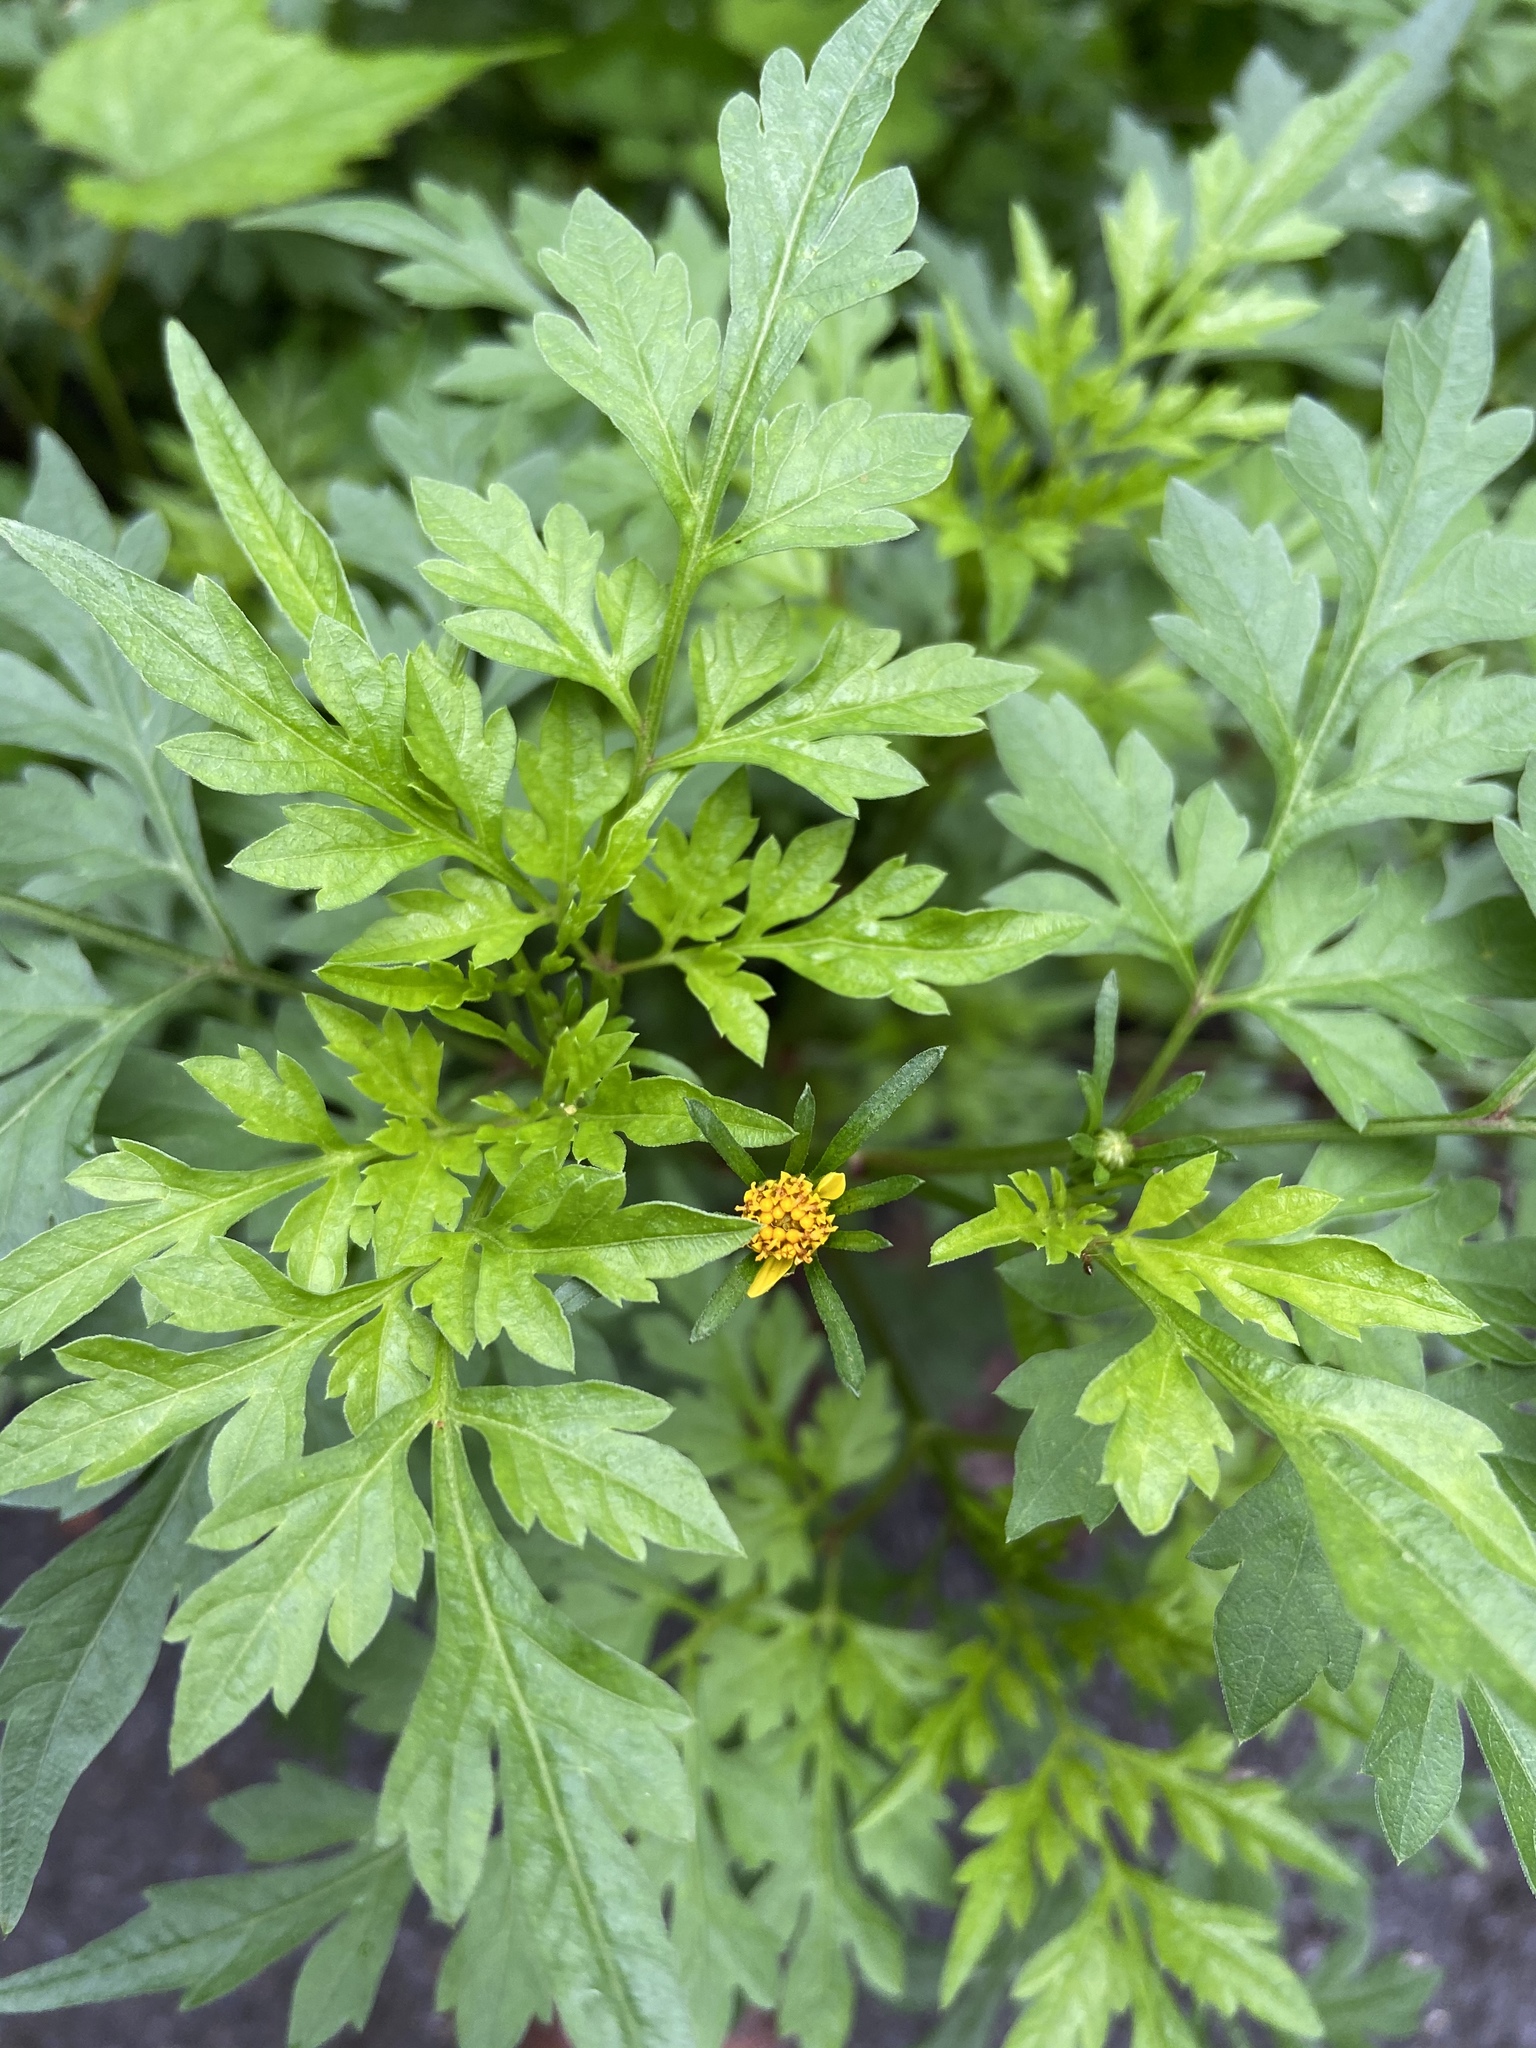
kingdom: Plantae
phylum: Tracheophyta
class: Magnoliopsida
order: Asterales
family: Asteraceae
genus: Bidens
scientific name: Bidens bipinnata
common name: Spanish-needles
